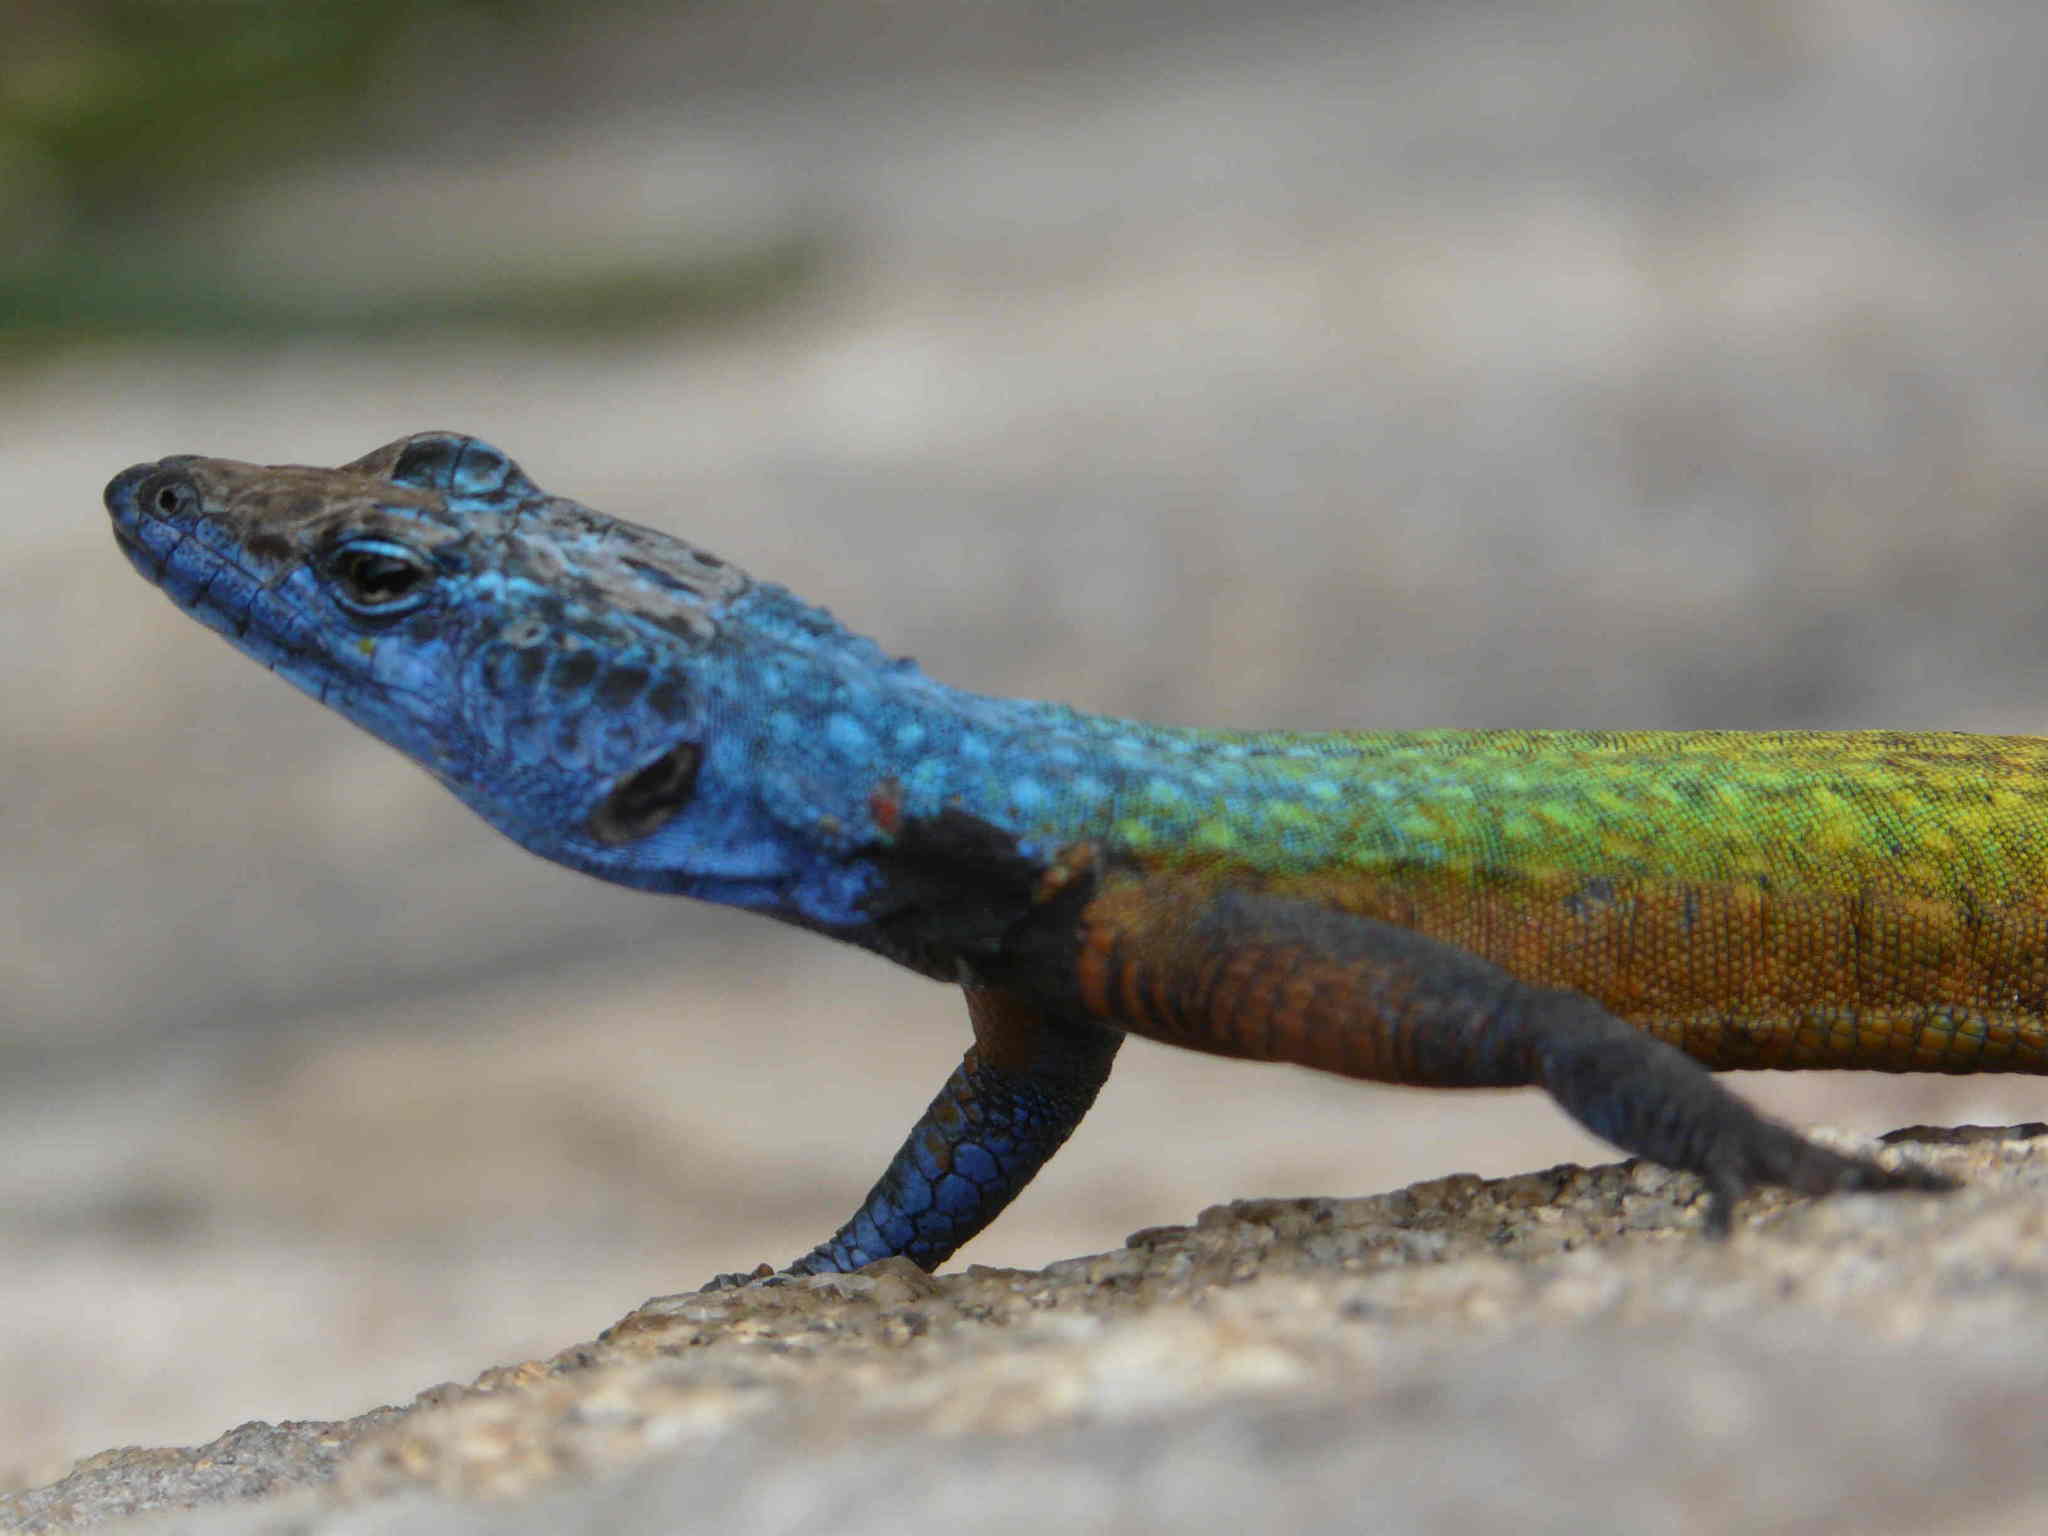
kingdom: Animalia
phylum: Chordata
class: Squamata
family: Cordylidae
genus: Platysaurus
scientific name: Platysaurus intermedius
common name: Common flat lizard
